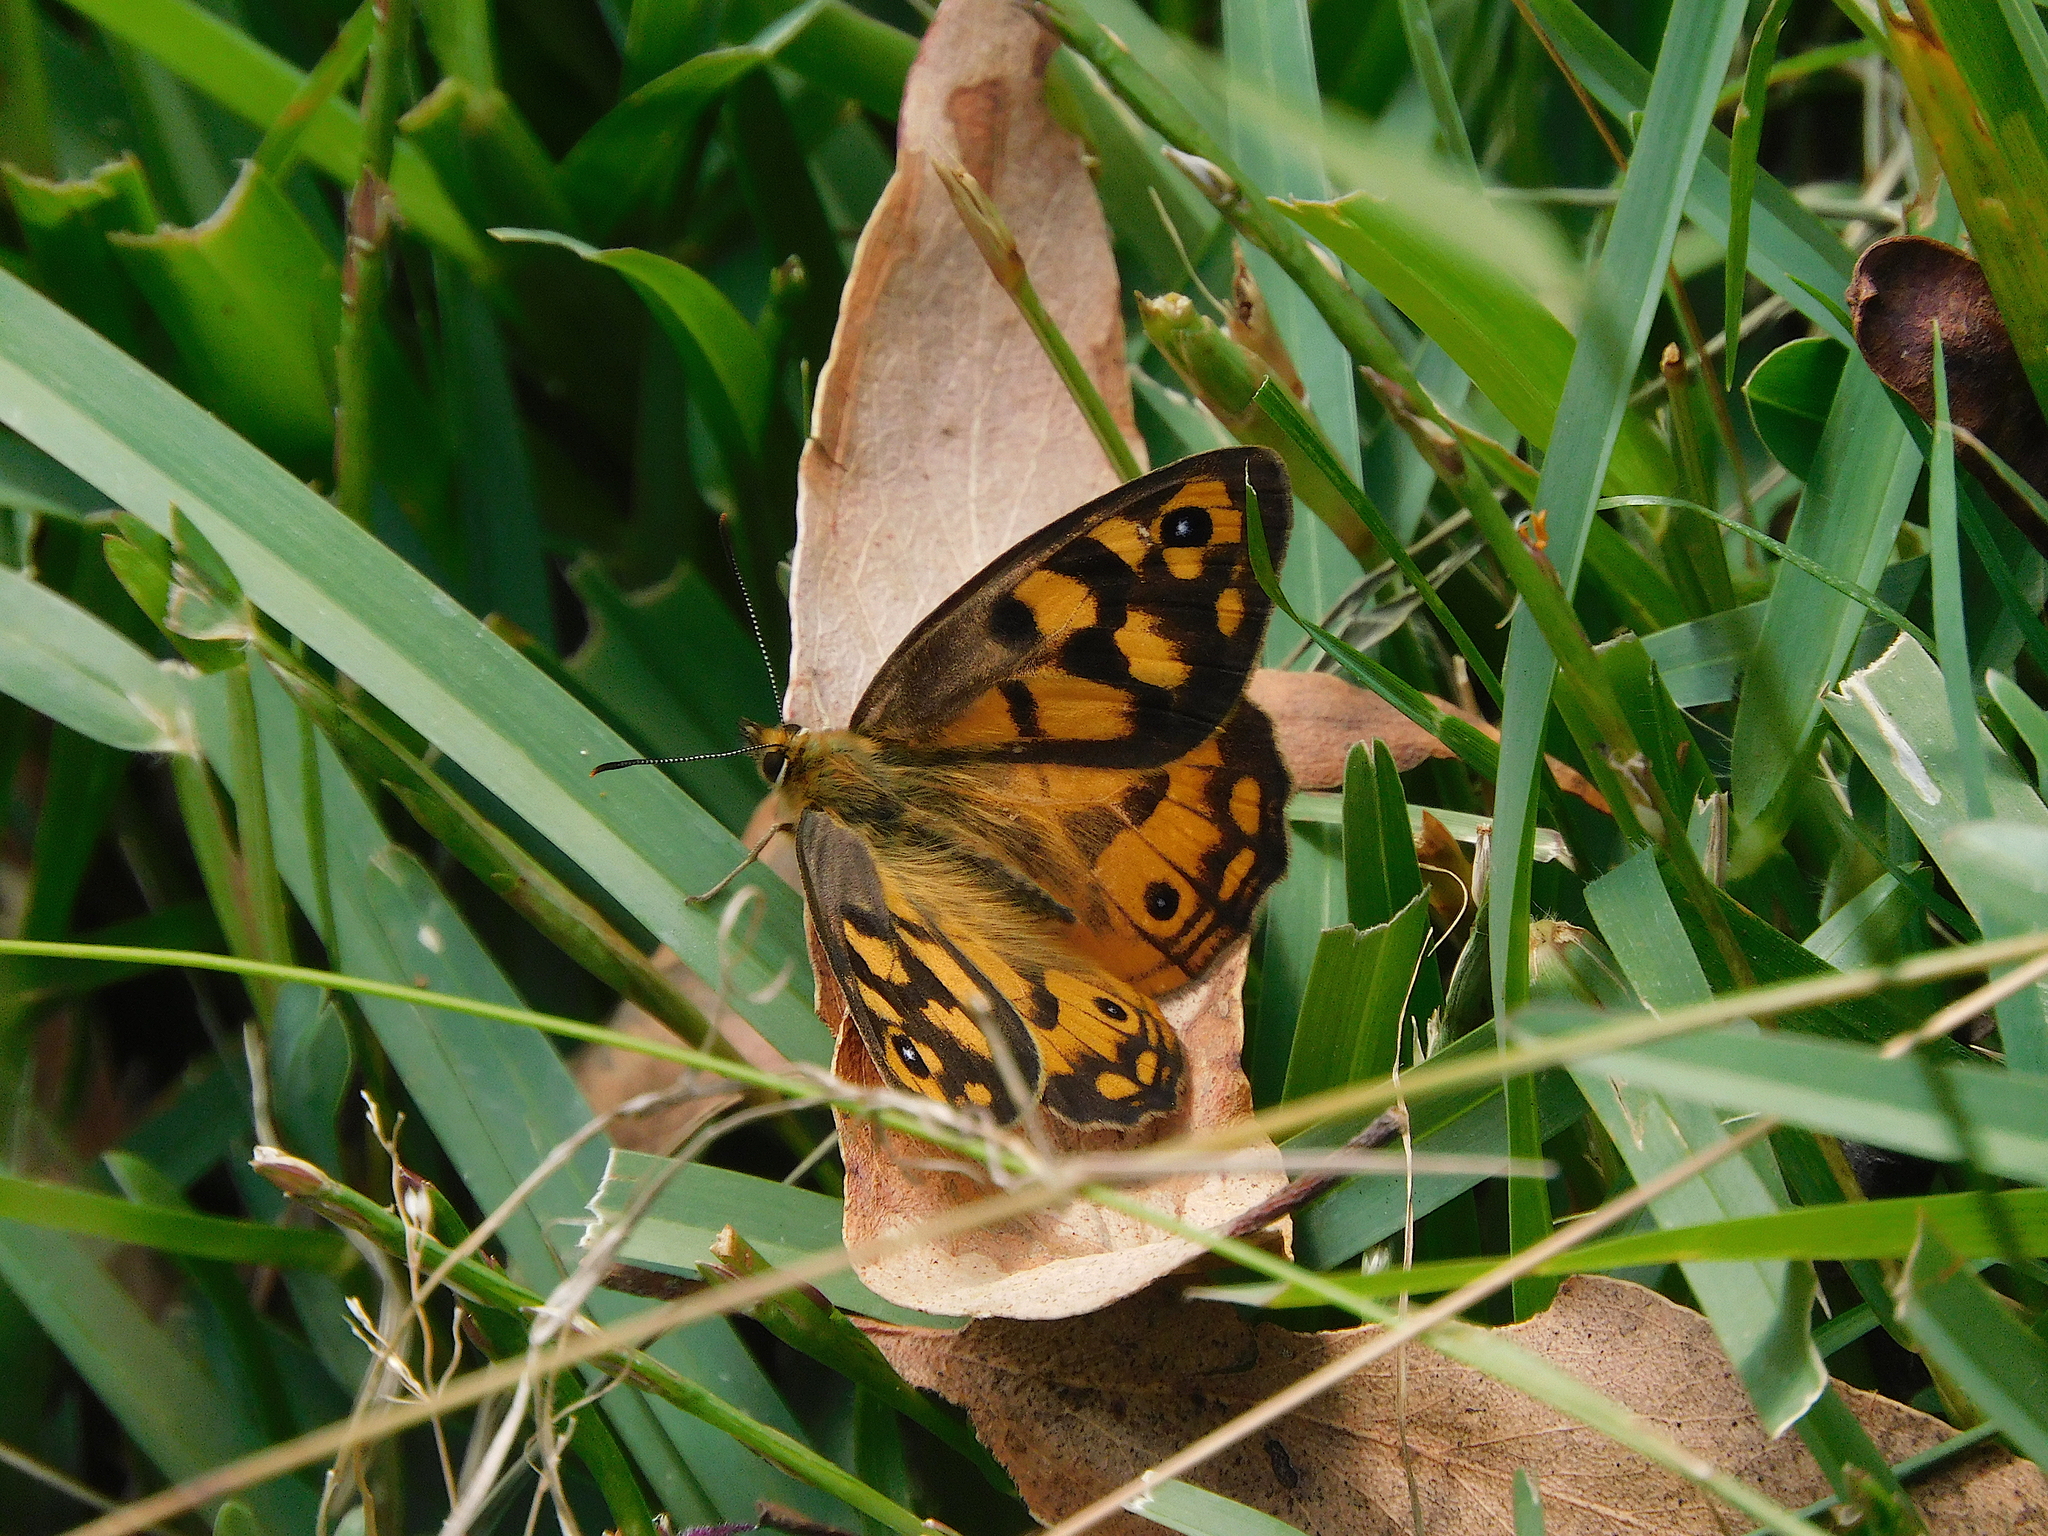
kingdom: Animalia
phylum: Arthropoda
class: Insecta
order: Lepidoptera
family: Nymphalidae
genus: Heteronympha
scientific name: Heteronympha penelope
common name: Shouldered brown
